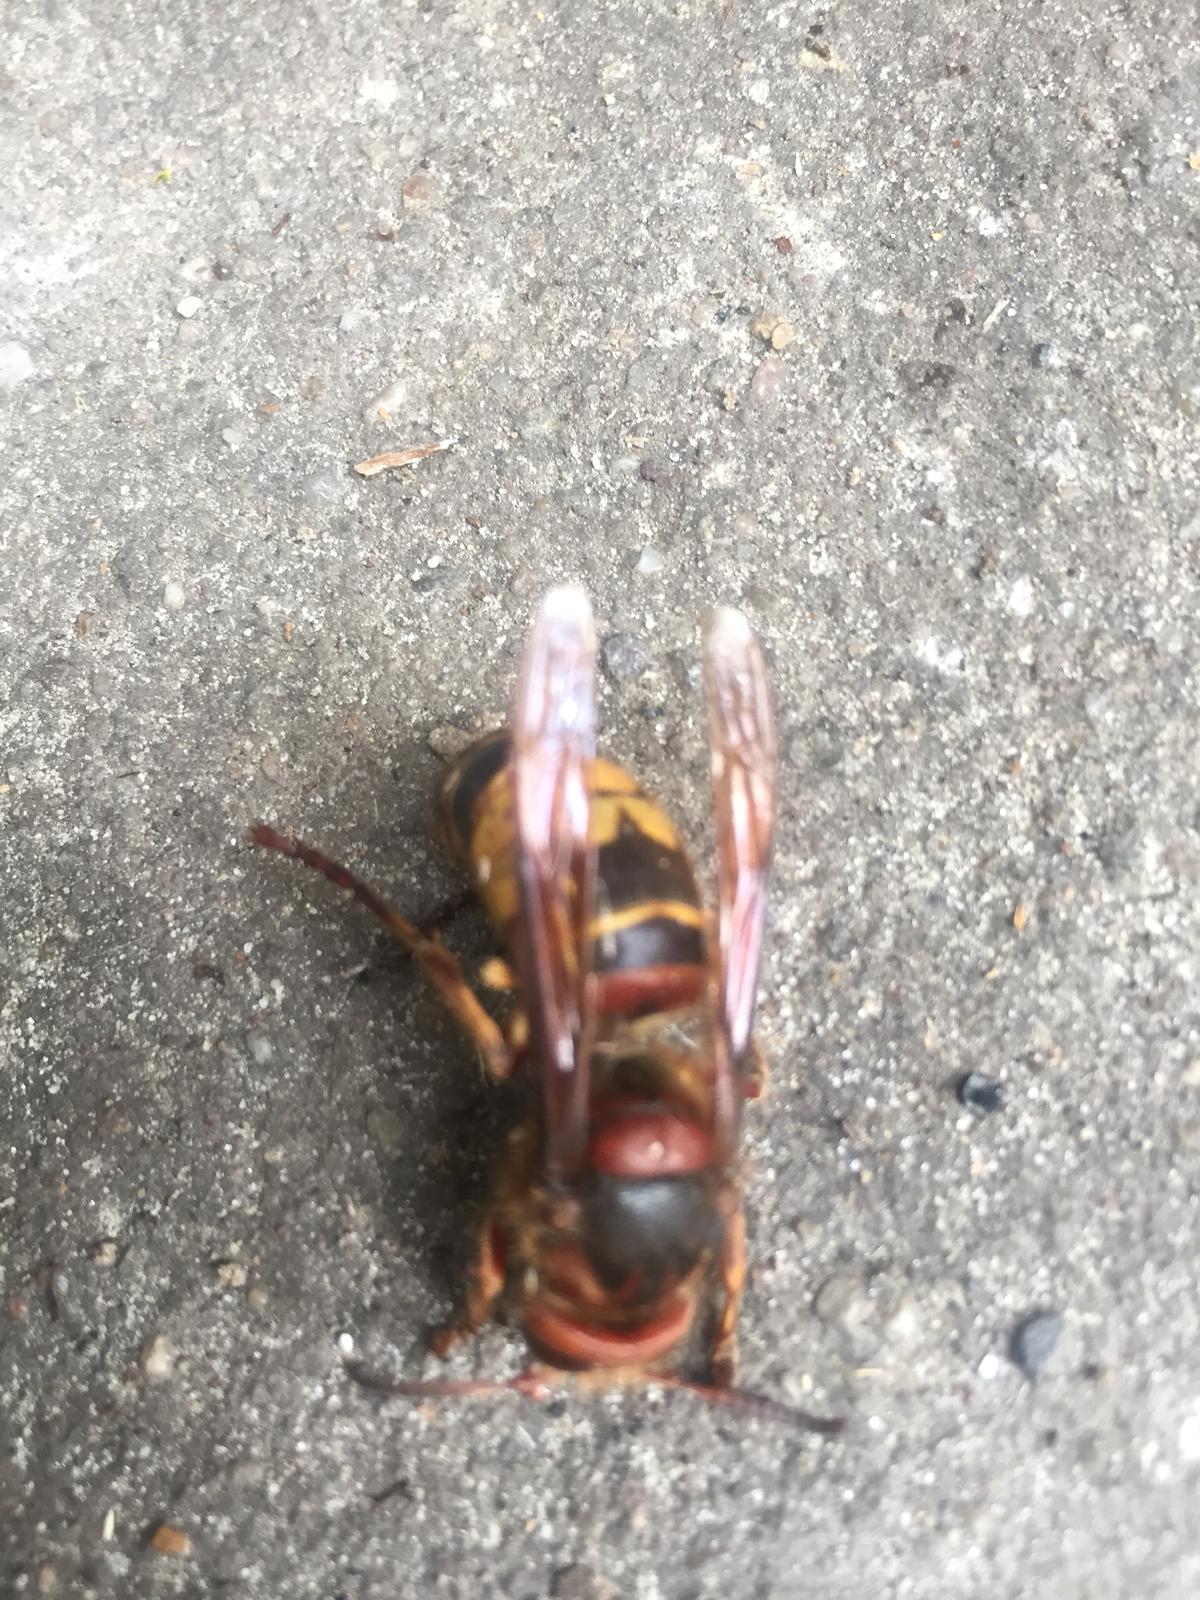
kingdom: Animalia
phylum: Arthropoda
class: Insecta
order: Hymenoptera
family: Vespidae
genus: Vespa
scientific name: Vespa crabro
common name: Hornet
